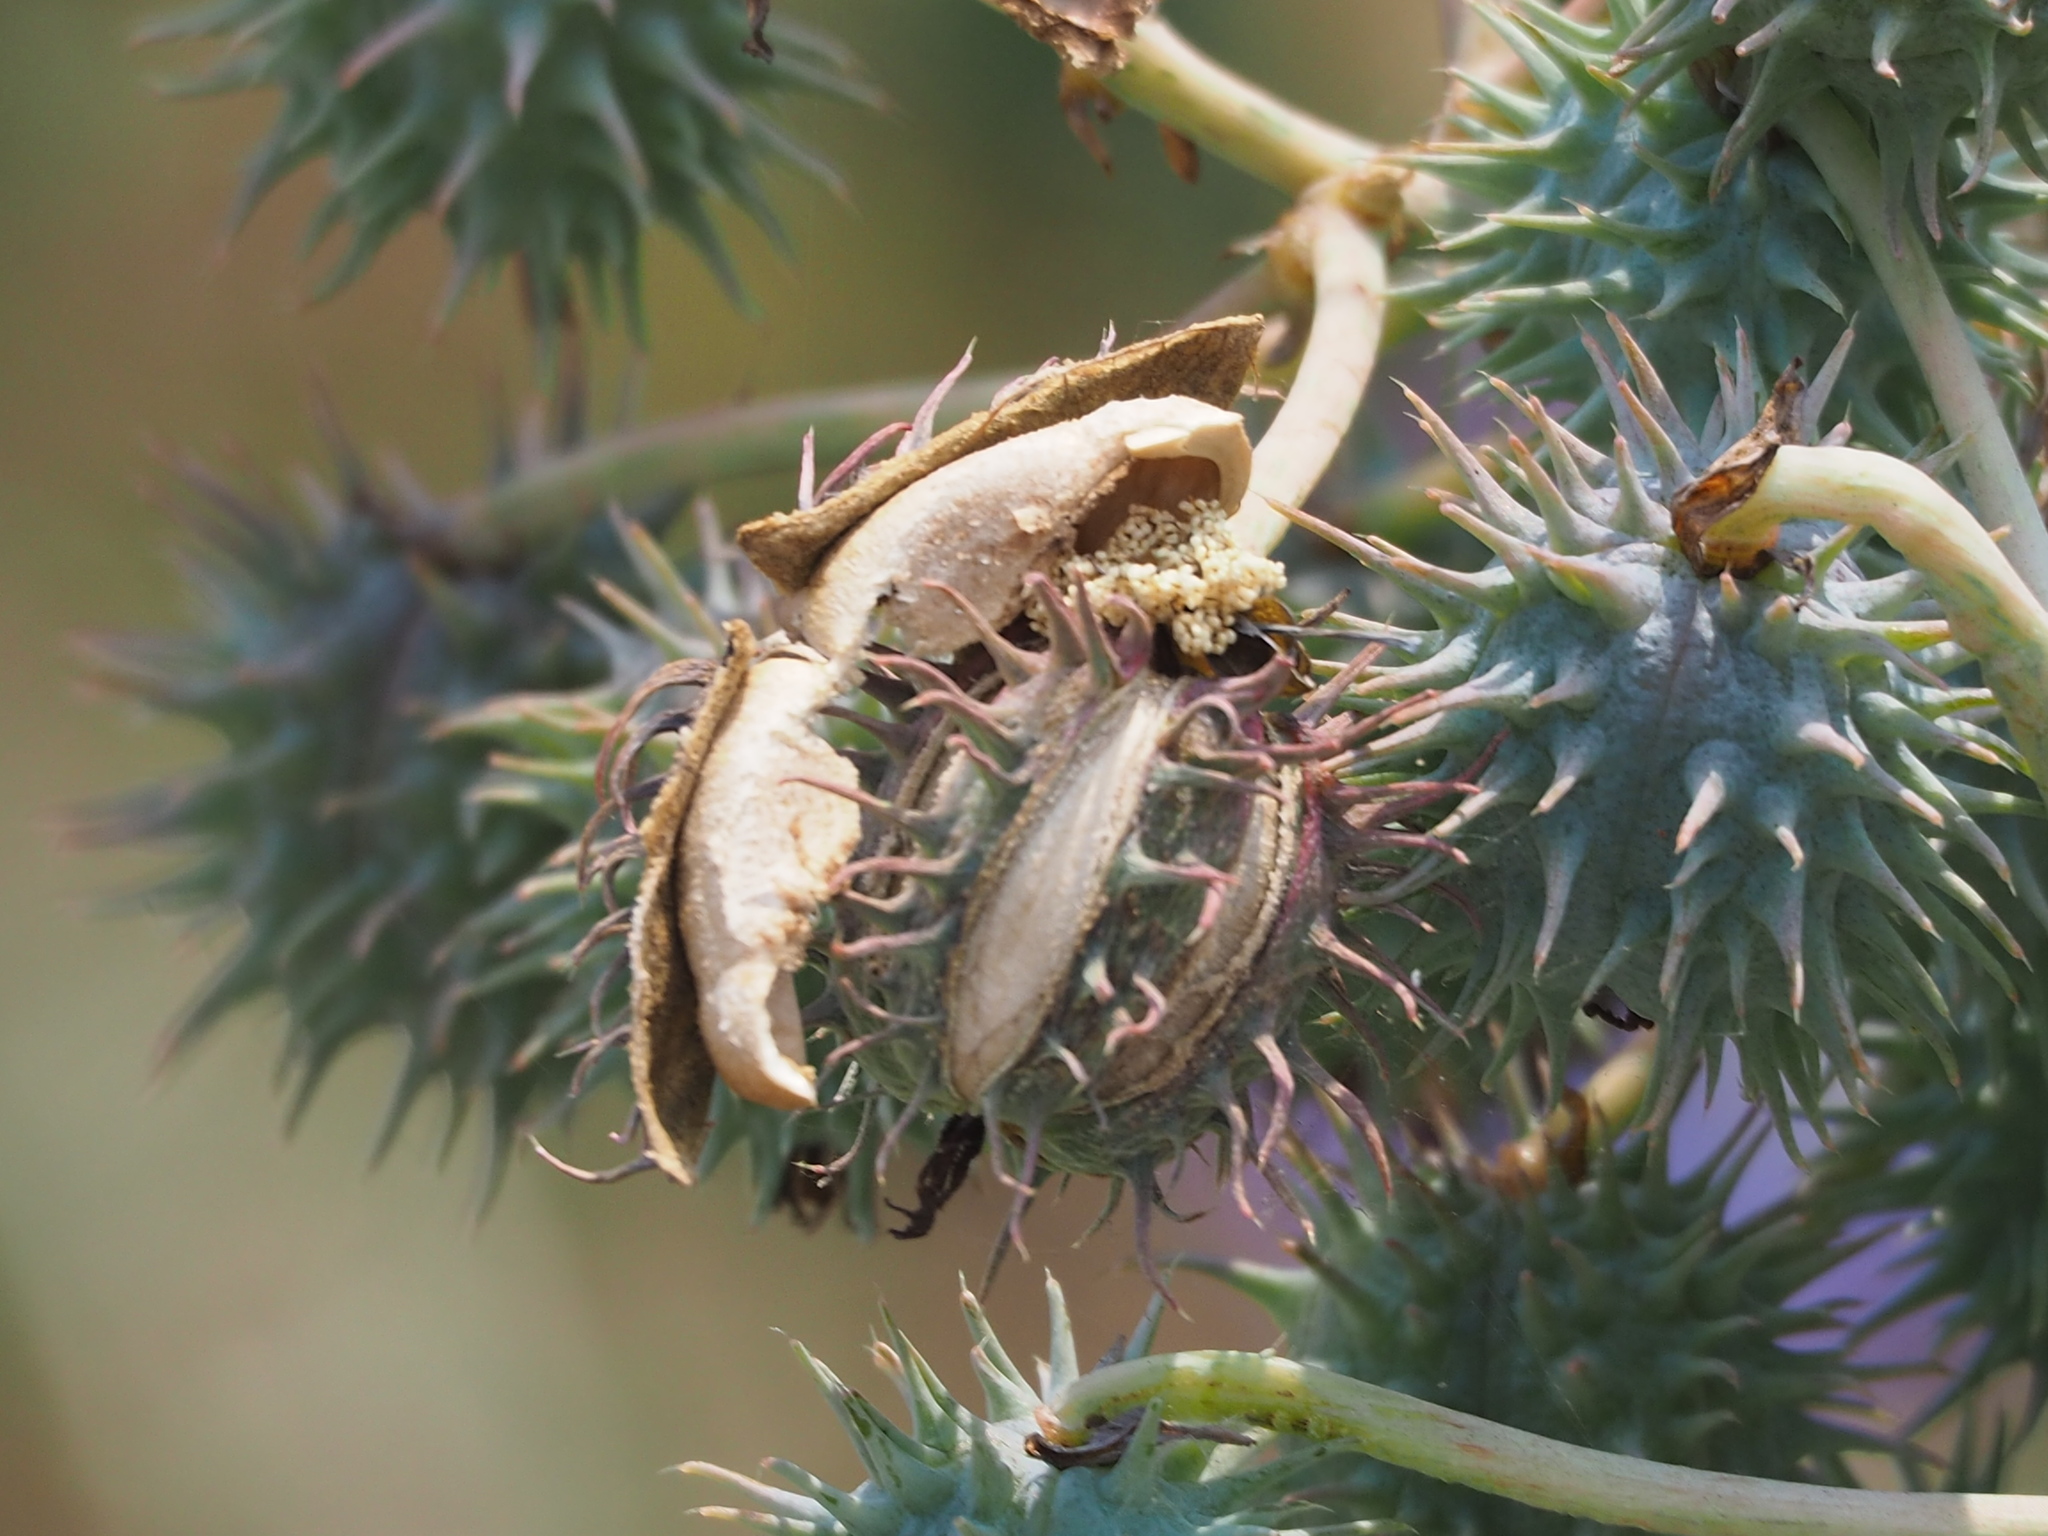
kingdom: Plantae
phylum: Tracheophyta
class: Magnoliopsida
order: Malpighiales
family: Euphorbiaceae
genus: Ricinus
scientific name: Ricinus communis
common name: Castor-oil-plant
